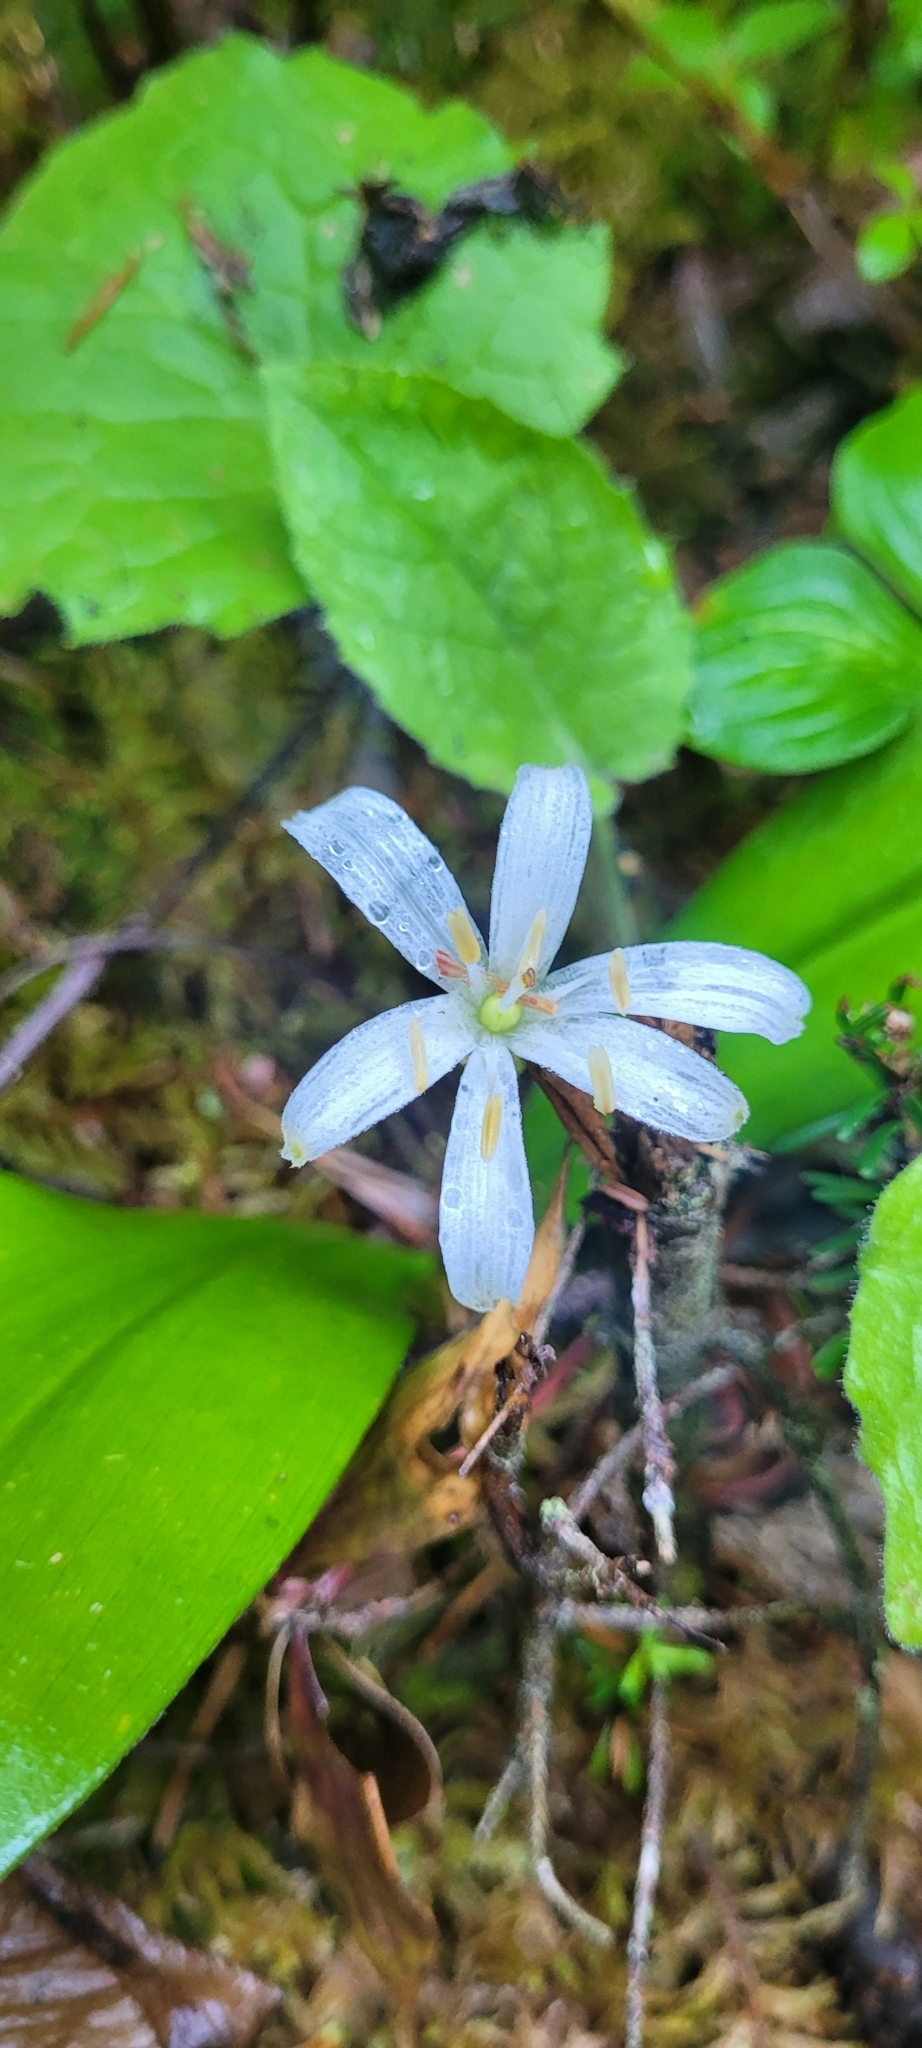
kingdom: Plantae
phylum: Tracheophyta
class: Liliopsida
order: Liliales
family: Liliaceae
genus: Clintonia
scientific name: Clintonia uniflora
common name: Queen's cup
